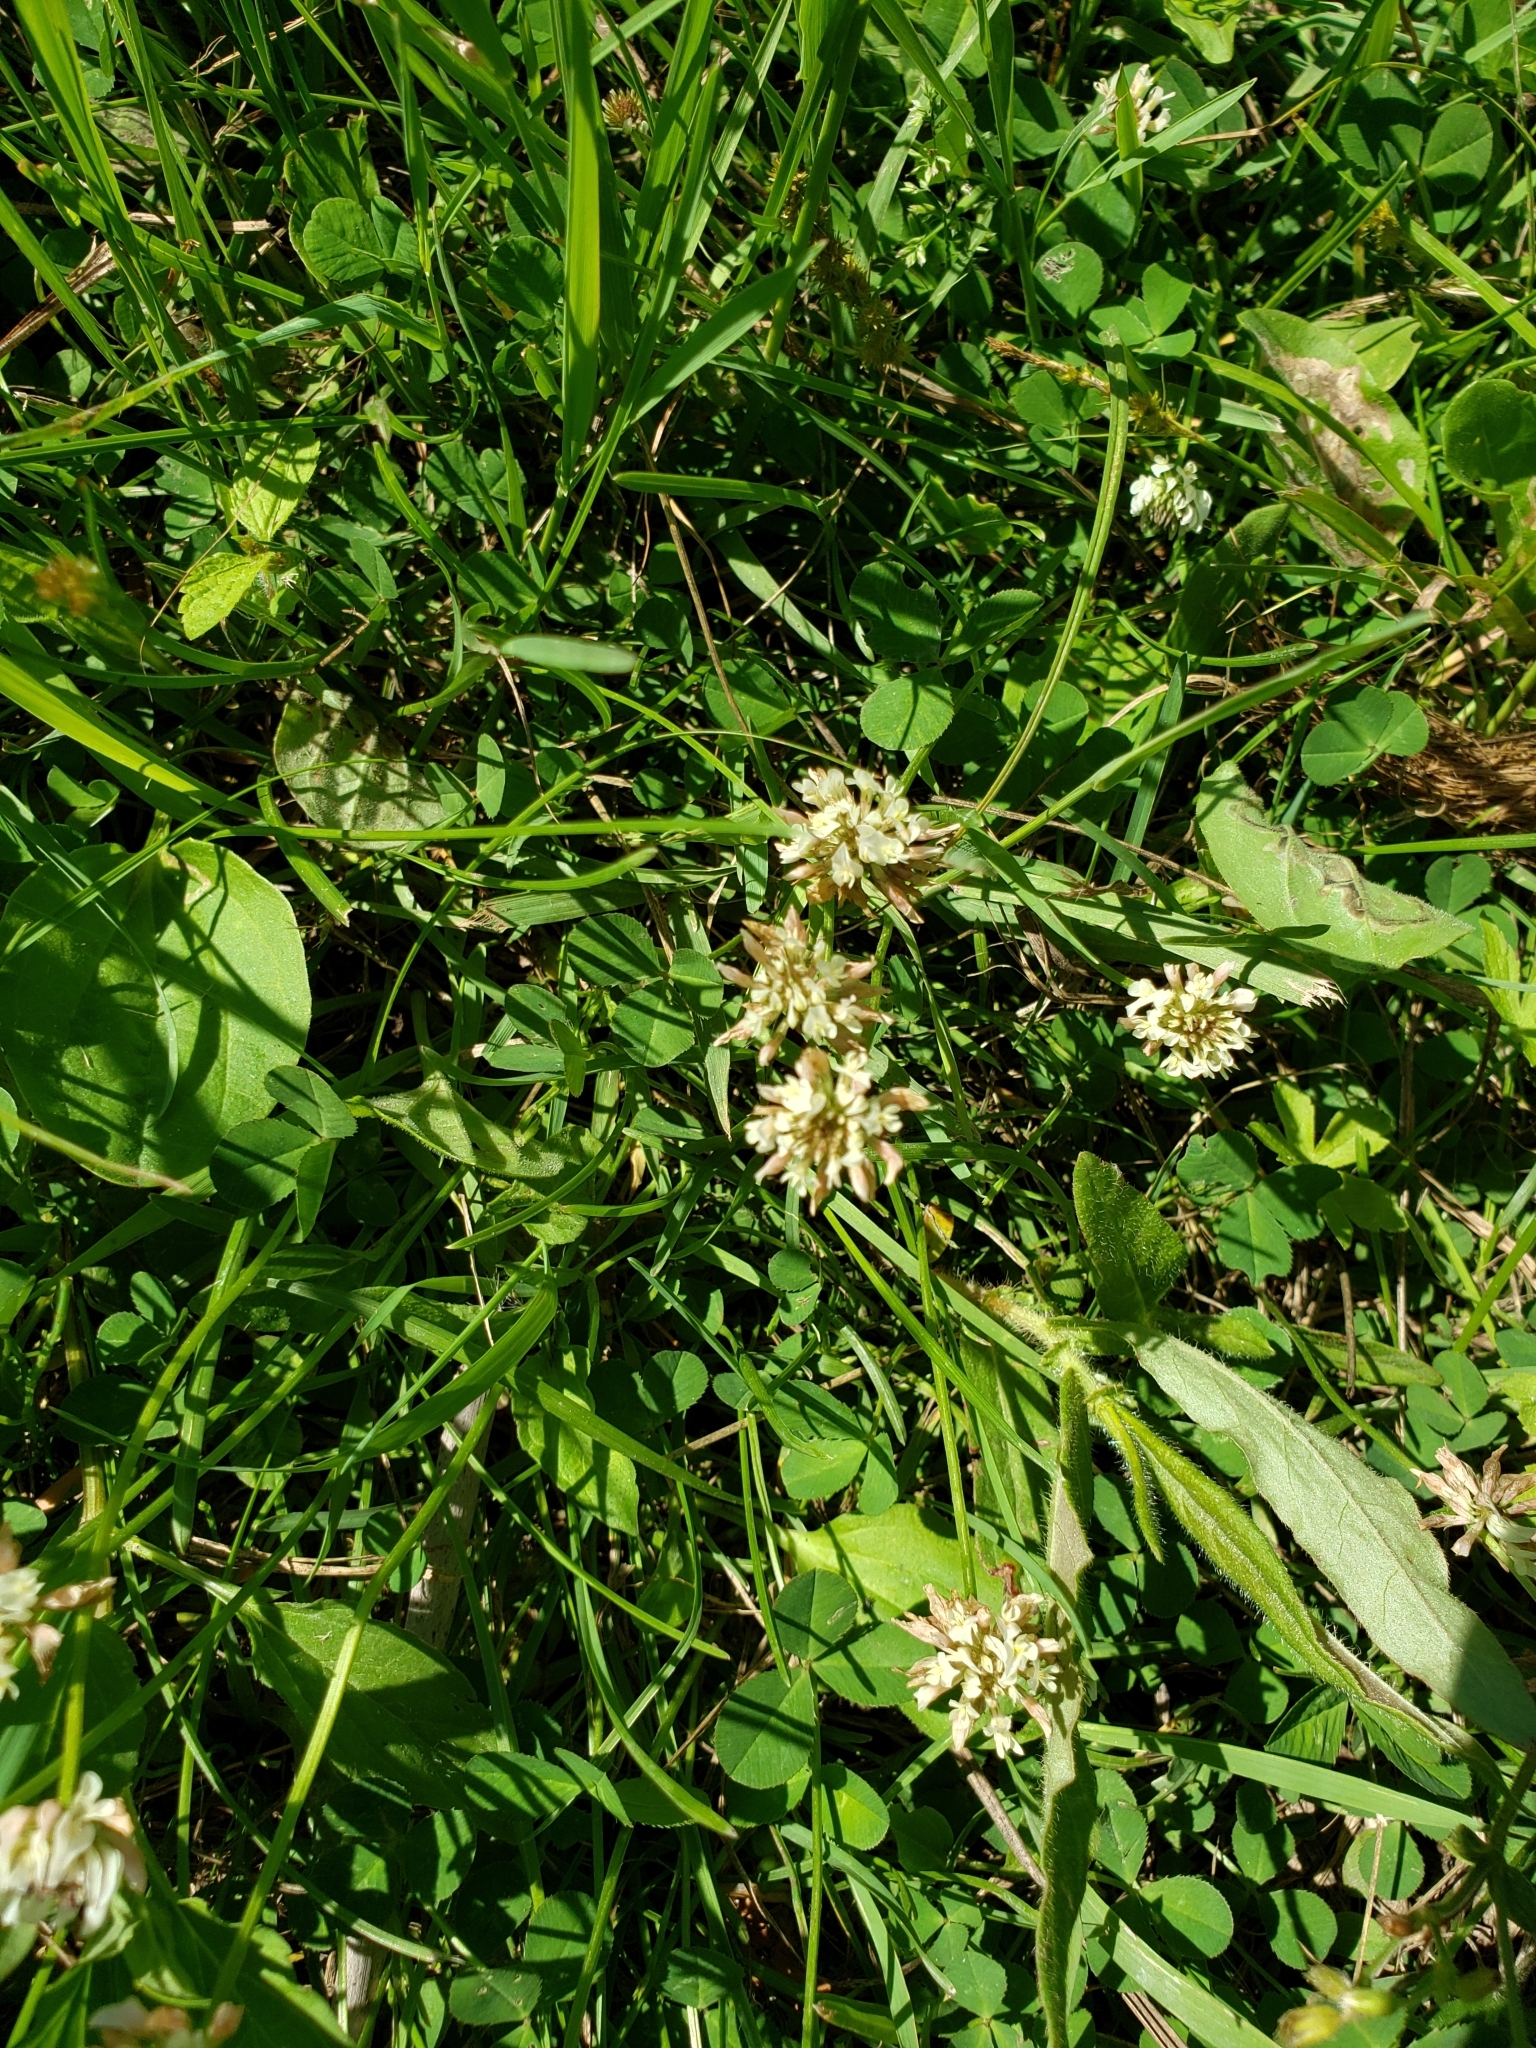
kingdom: Plantae
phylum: Tracheophyta
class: Magnoliopsida
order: Fabales
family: Fabaceae
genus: Trifolium
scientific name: Trifolium repens
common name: White clover
